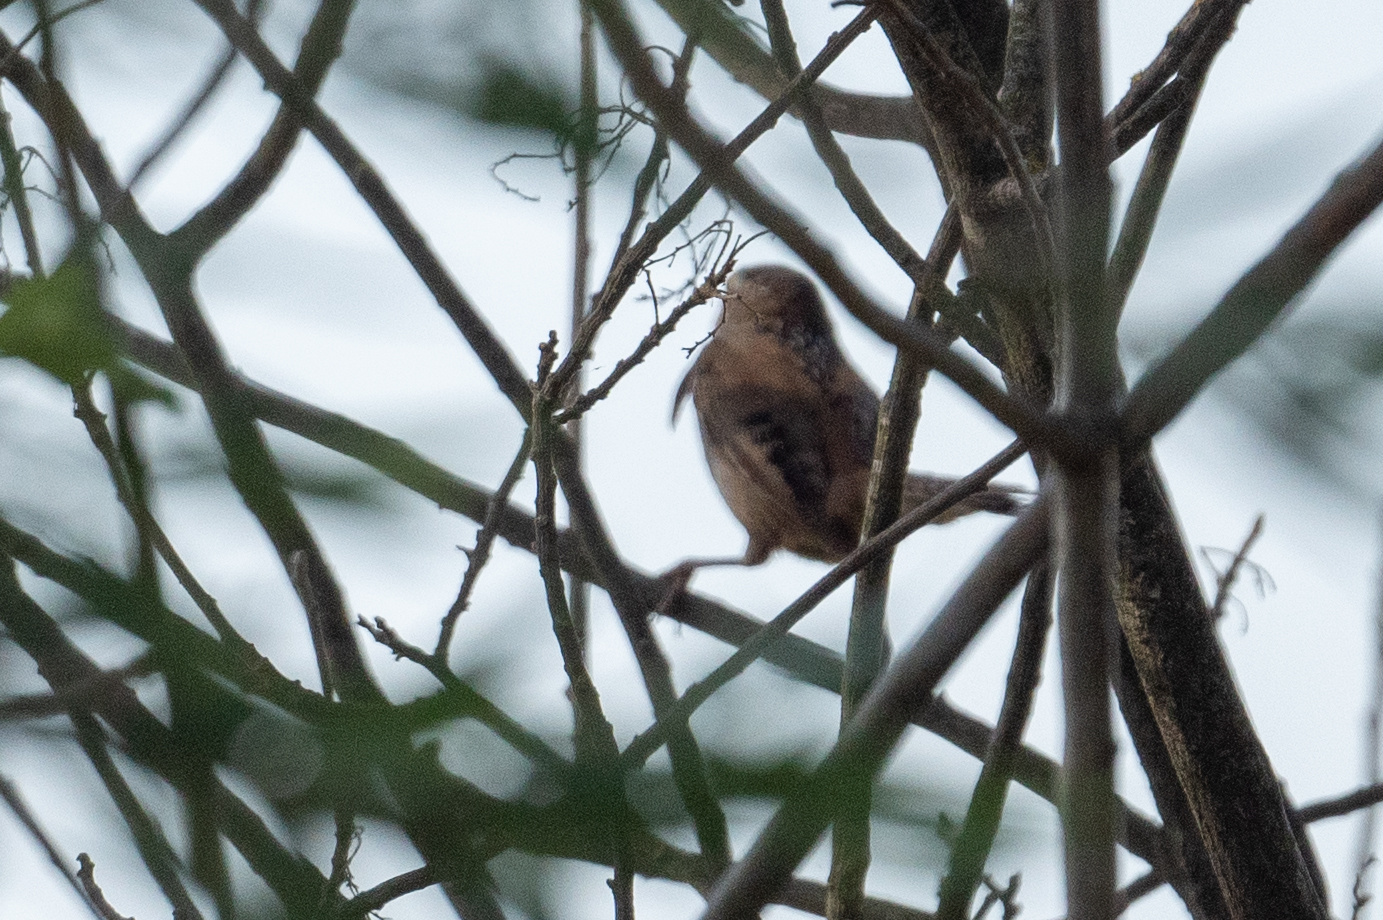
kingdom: Animalia
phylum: Chordata
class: Aves
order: Passeriformes
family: Troglodytidae
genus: Cistothorus
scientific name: Cistothorus palustris
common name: Marsh wren
